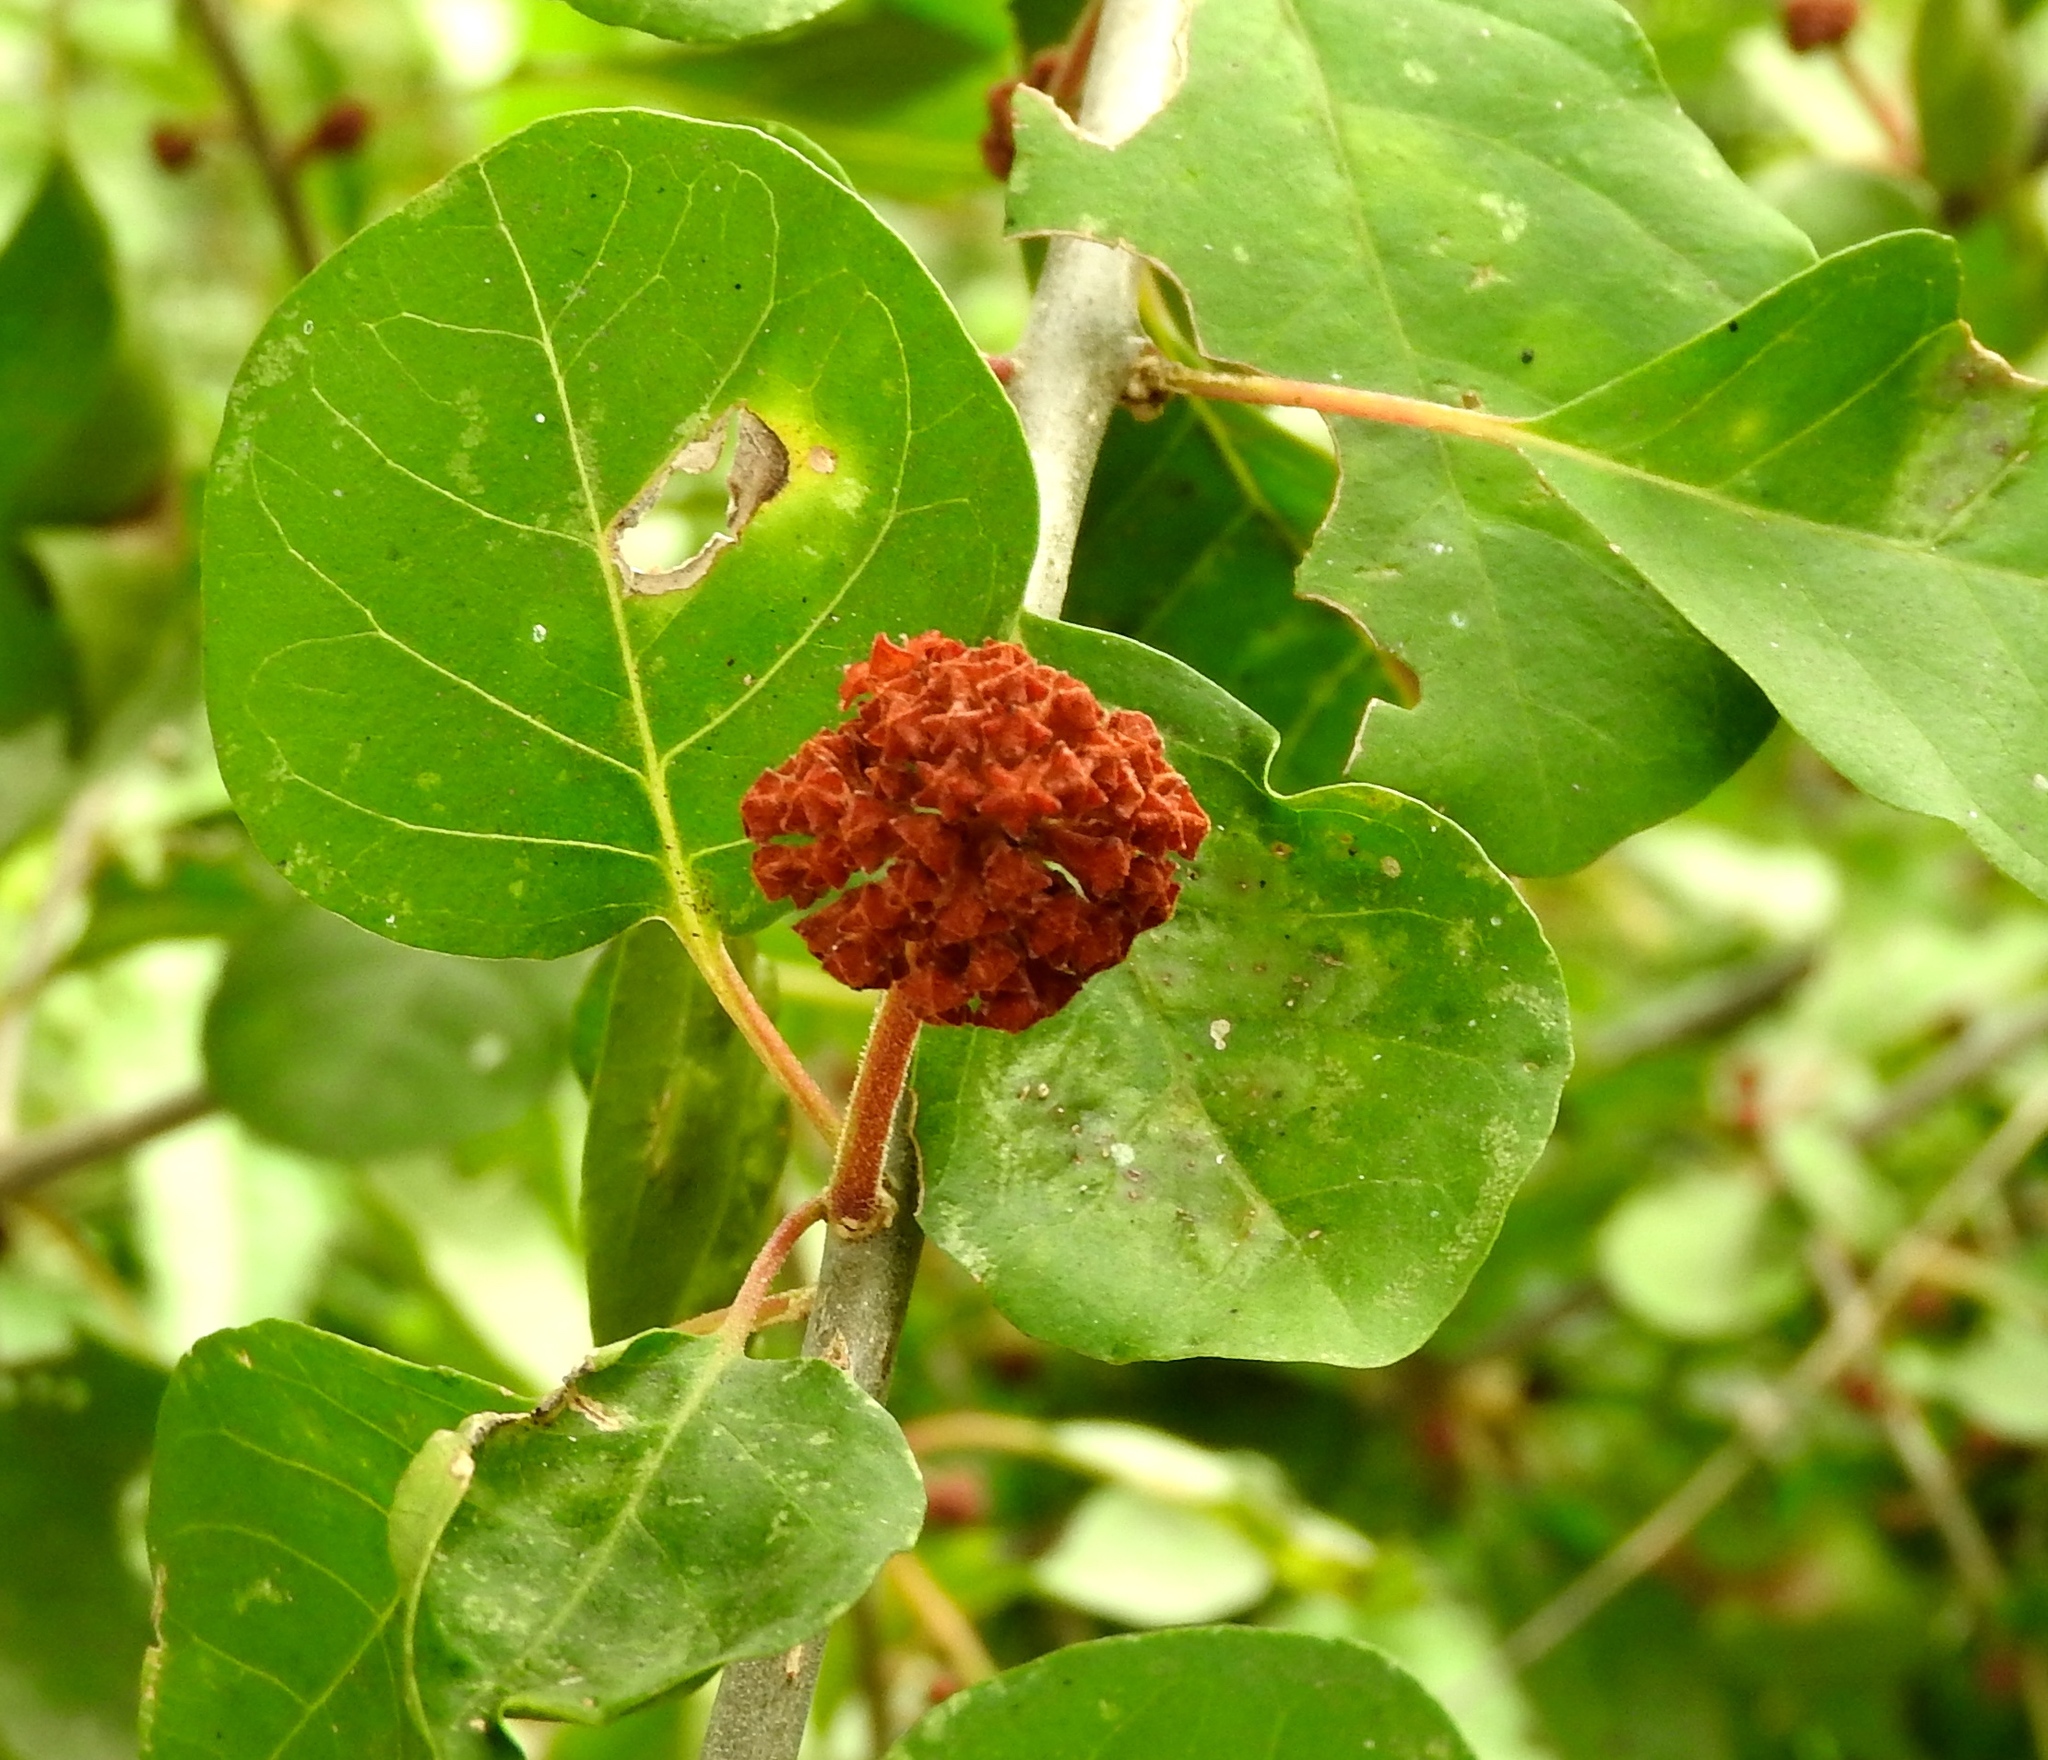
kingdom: Plantae
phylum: Tracheophyta
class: Magnoliopsida
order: Caryophyllales
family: Nyctaginaceae
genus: Pisonia
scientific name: Pisonia capitata
